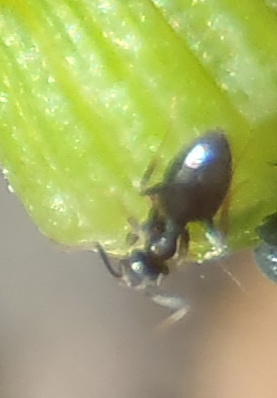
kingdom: Animalia
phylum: Arthropoda
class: Insecta
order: Hymenoptera
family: Formicidae
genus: Tapinoma
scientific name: Tapinoma pallipes
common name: Ant
